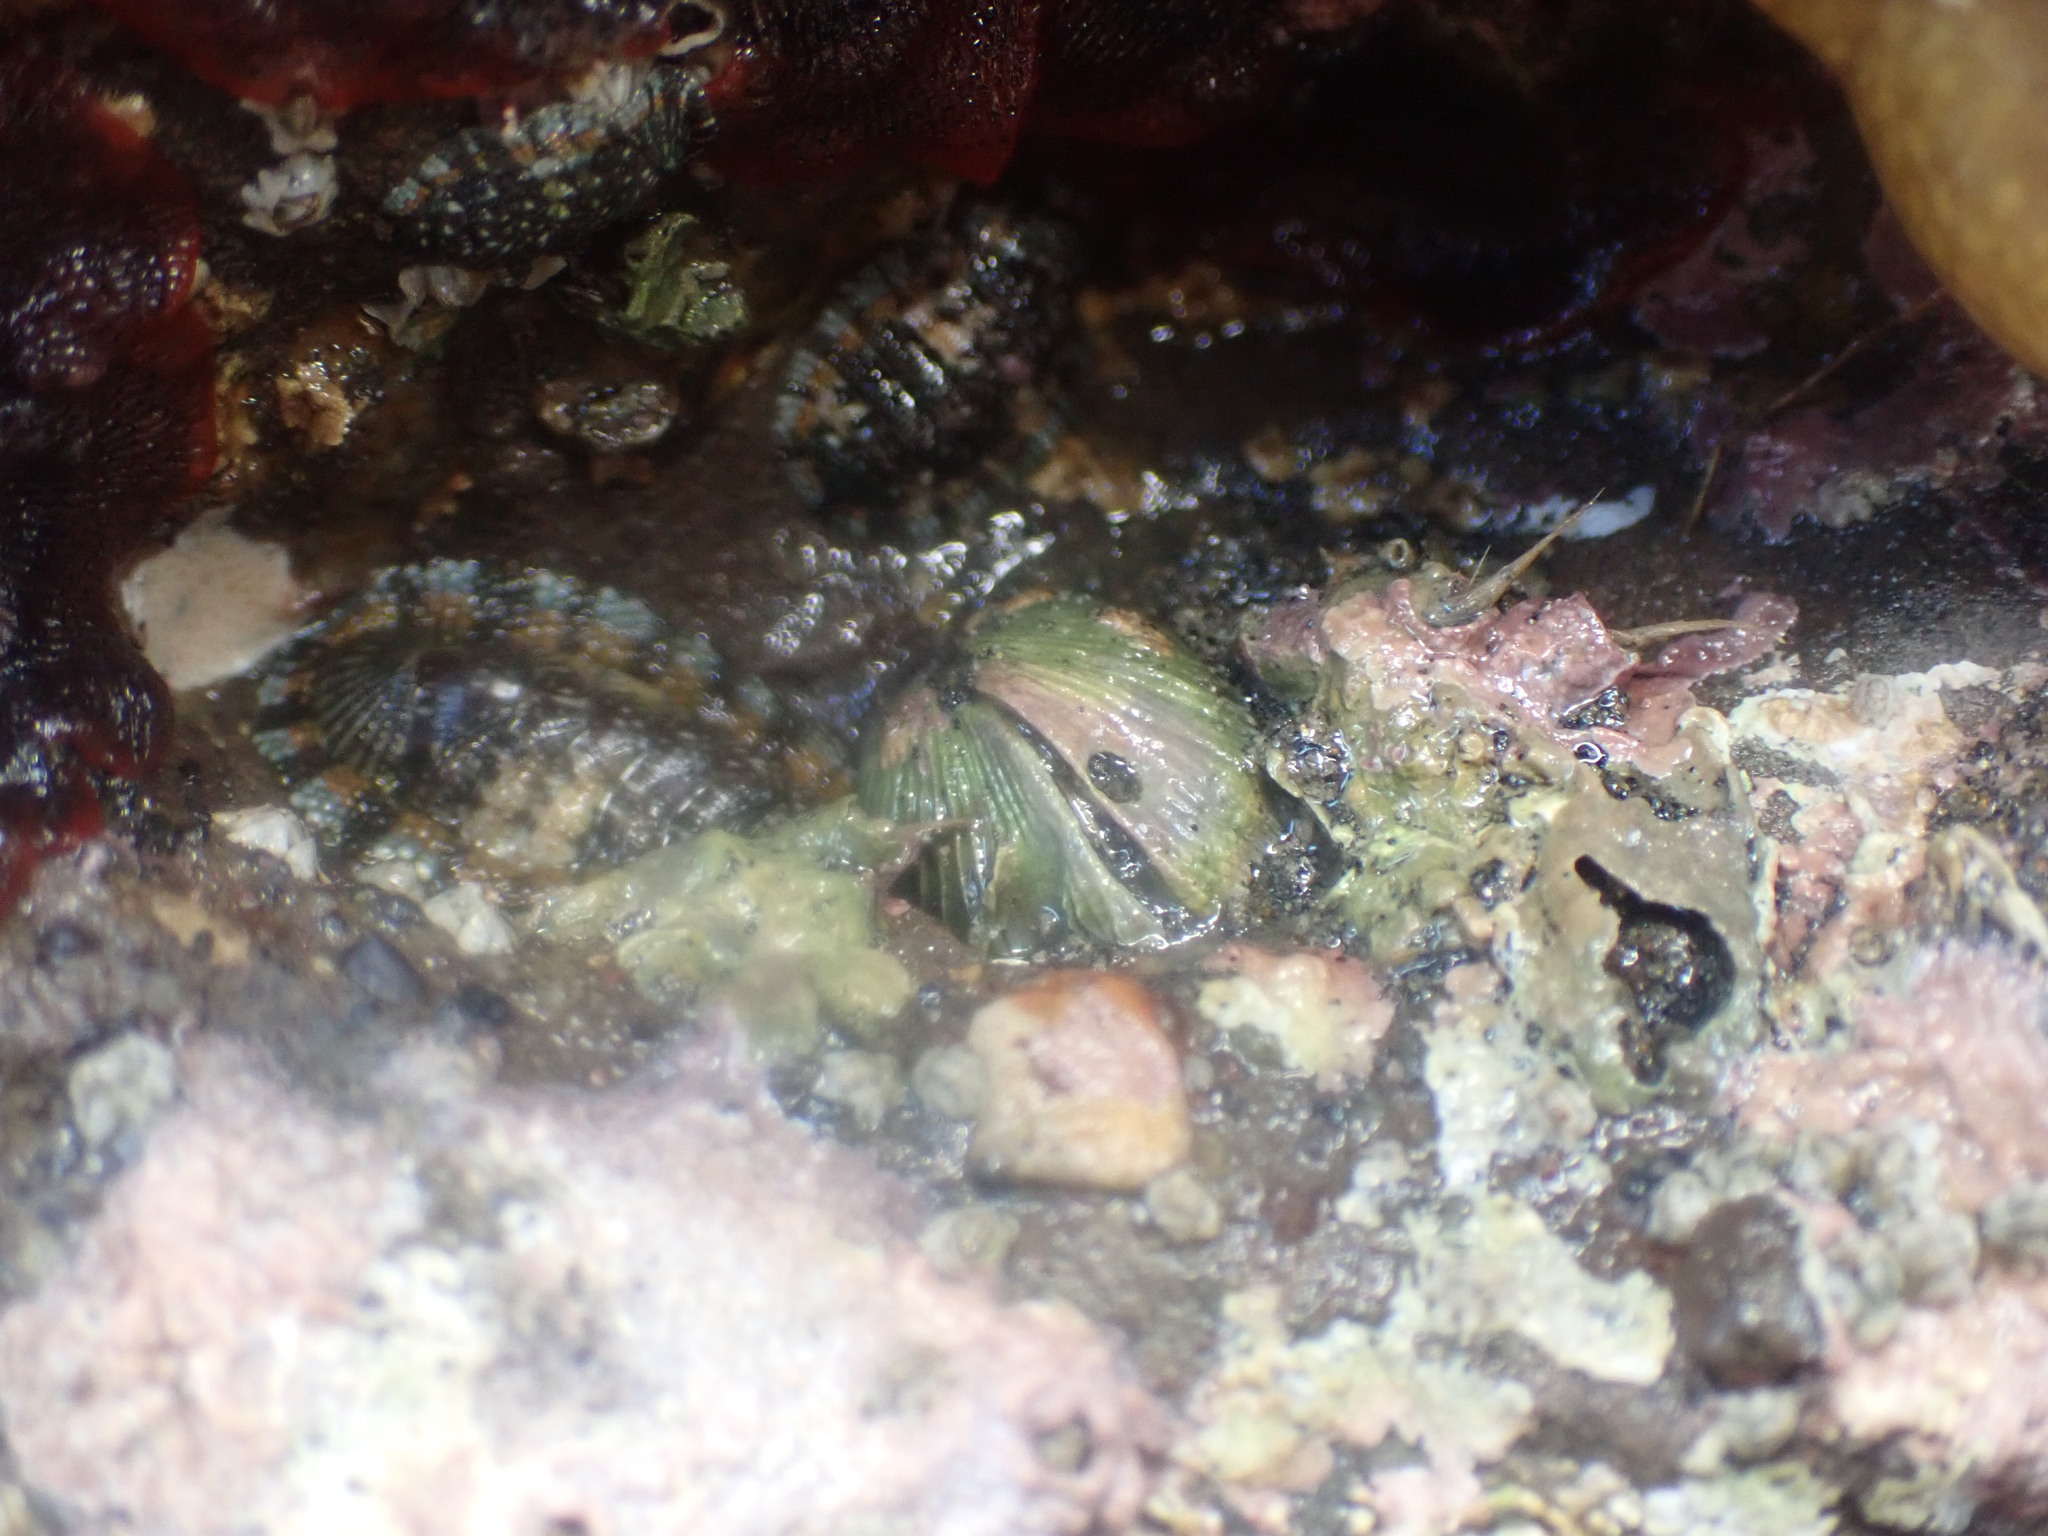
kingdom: Animalia
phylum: Mollusca
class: Bivalvia
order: Venerida
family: Veneridae
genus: Irus
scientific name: Irus reflexus
